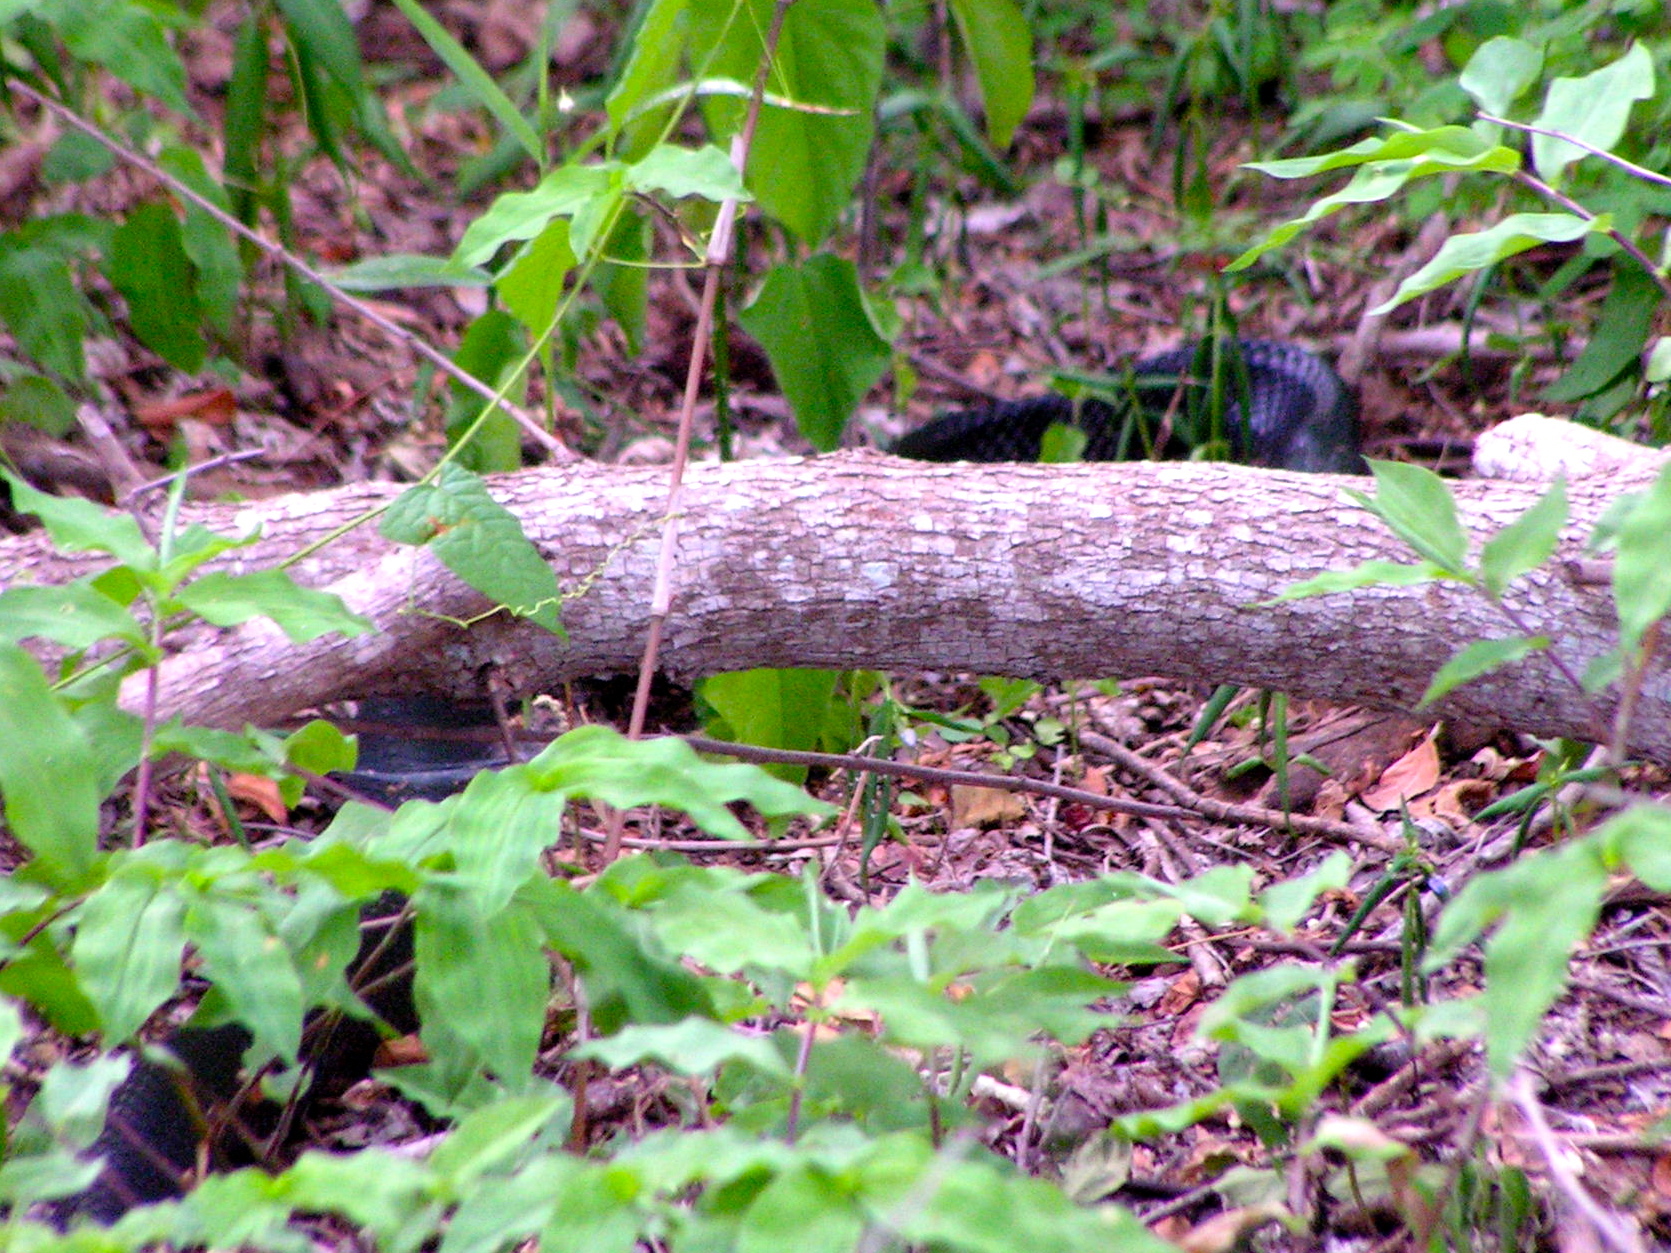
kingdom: Animalia
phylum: Chordata
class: Squamata
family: Colubridae
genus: Drymarchon
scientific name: Drymarchon melanurus
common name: Central american indigo snake
